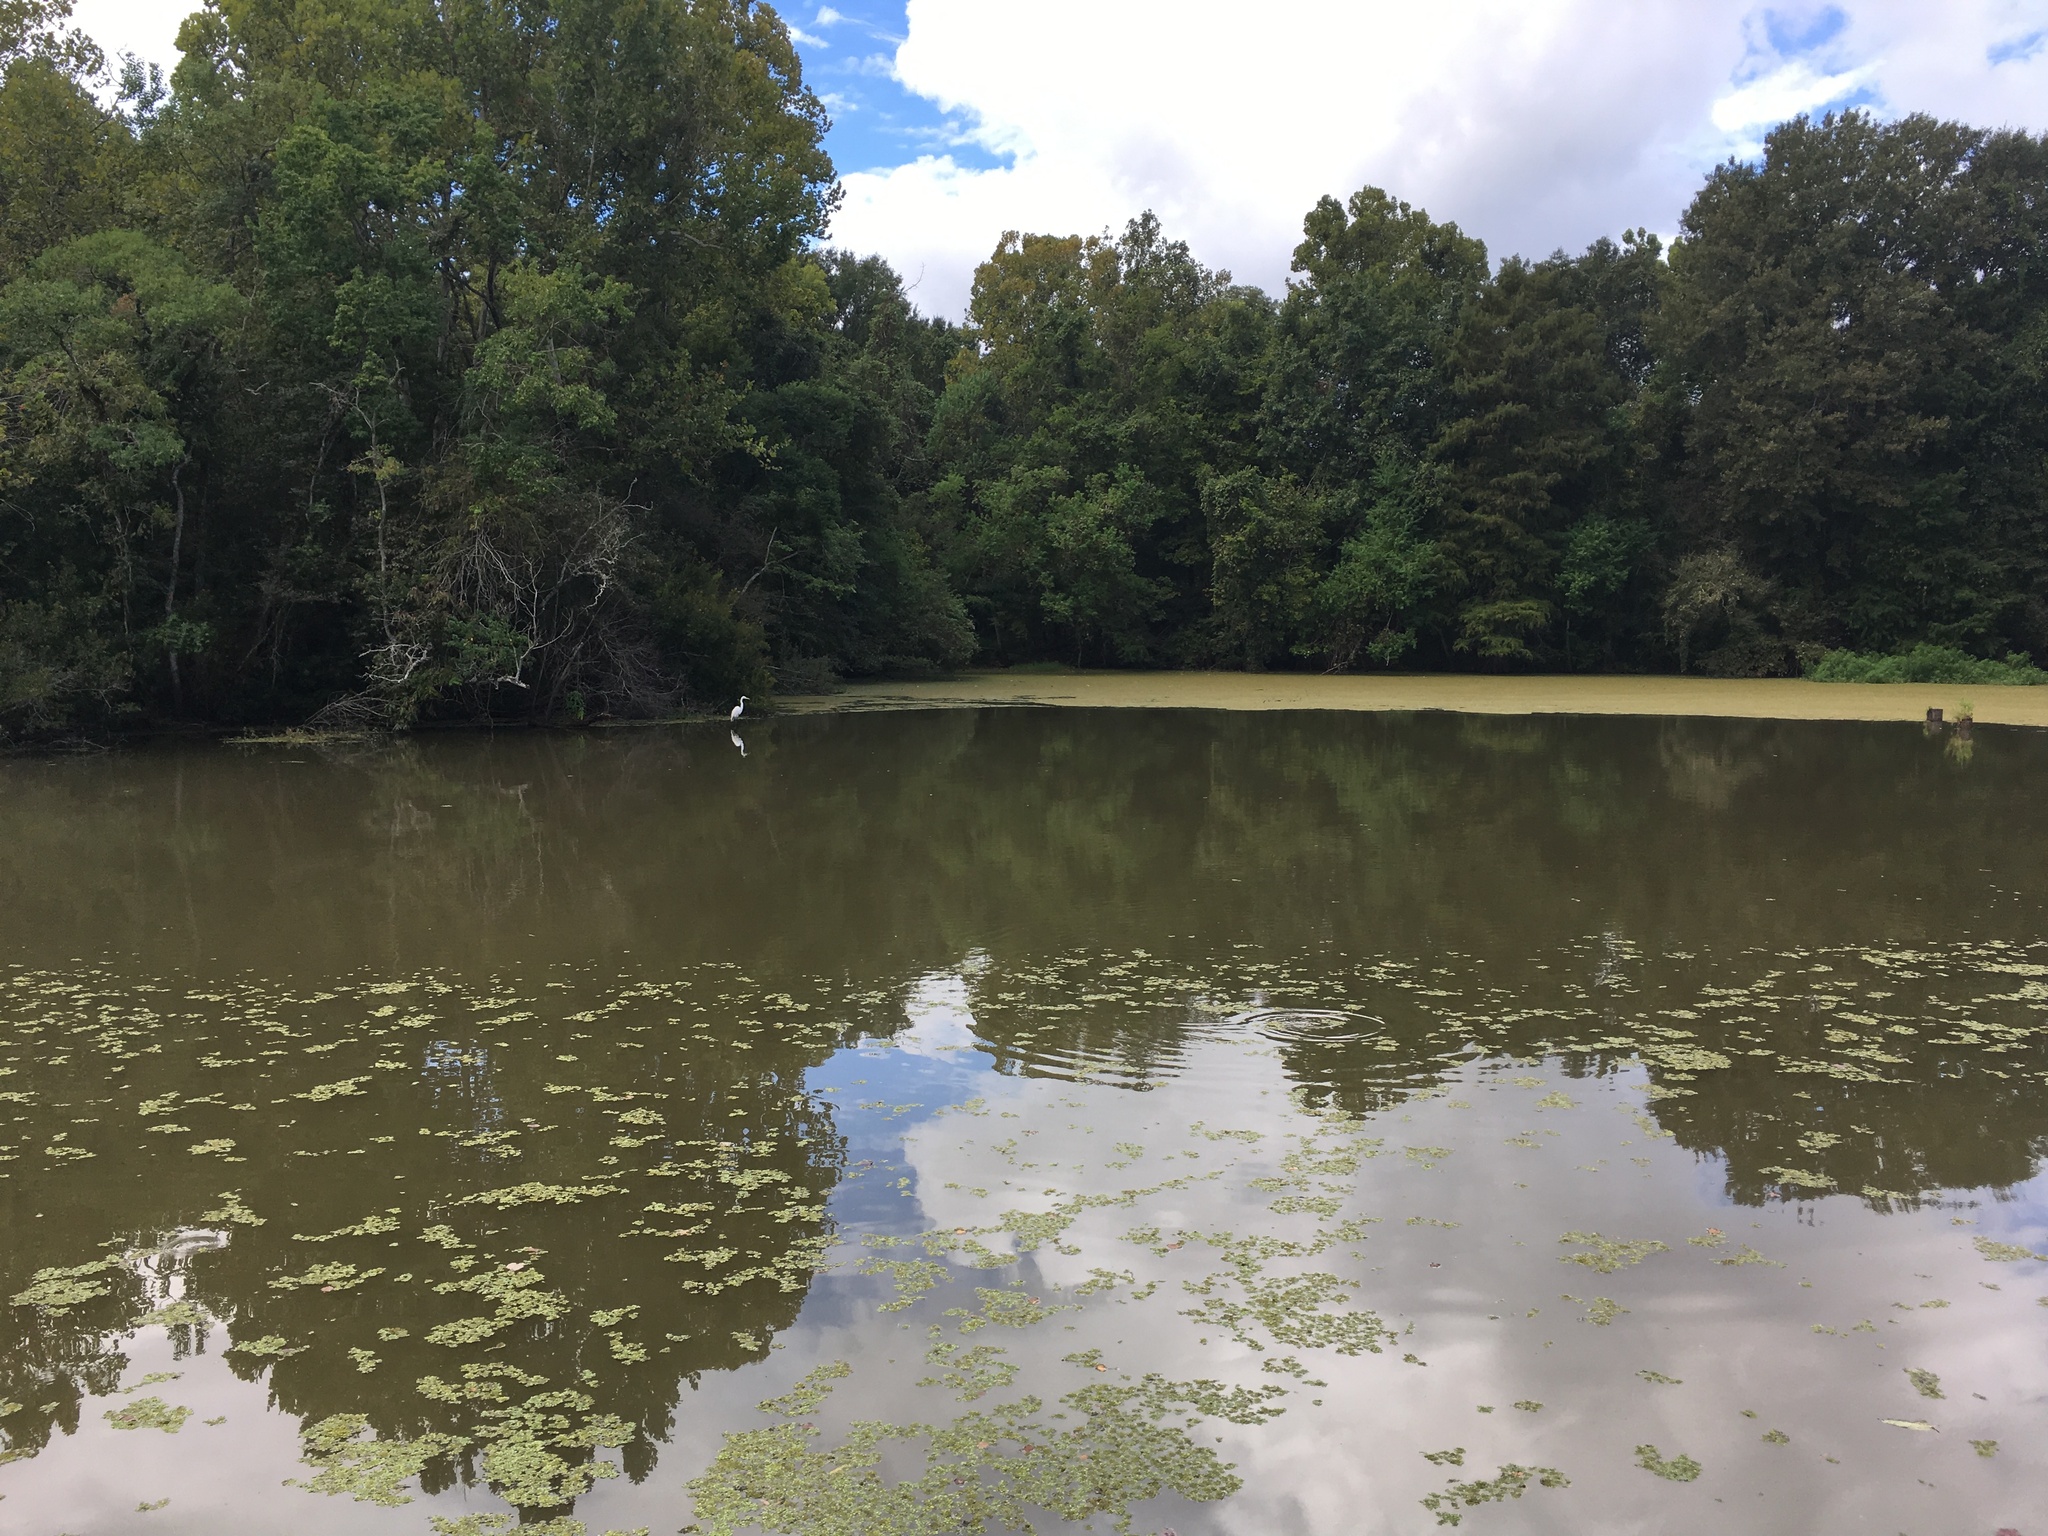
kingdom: Animalia
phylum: Chordata
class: Aves
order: Pelecaniformes
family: Ardeidae
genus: Ardea
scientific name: Ardea alba
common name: Great egret
